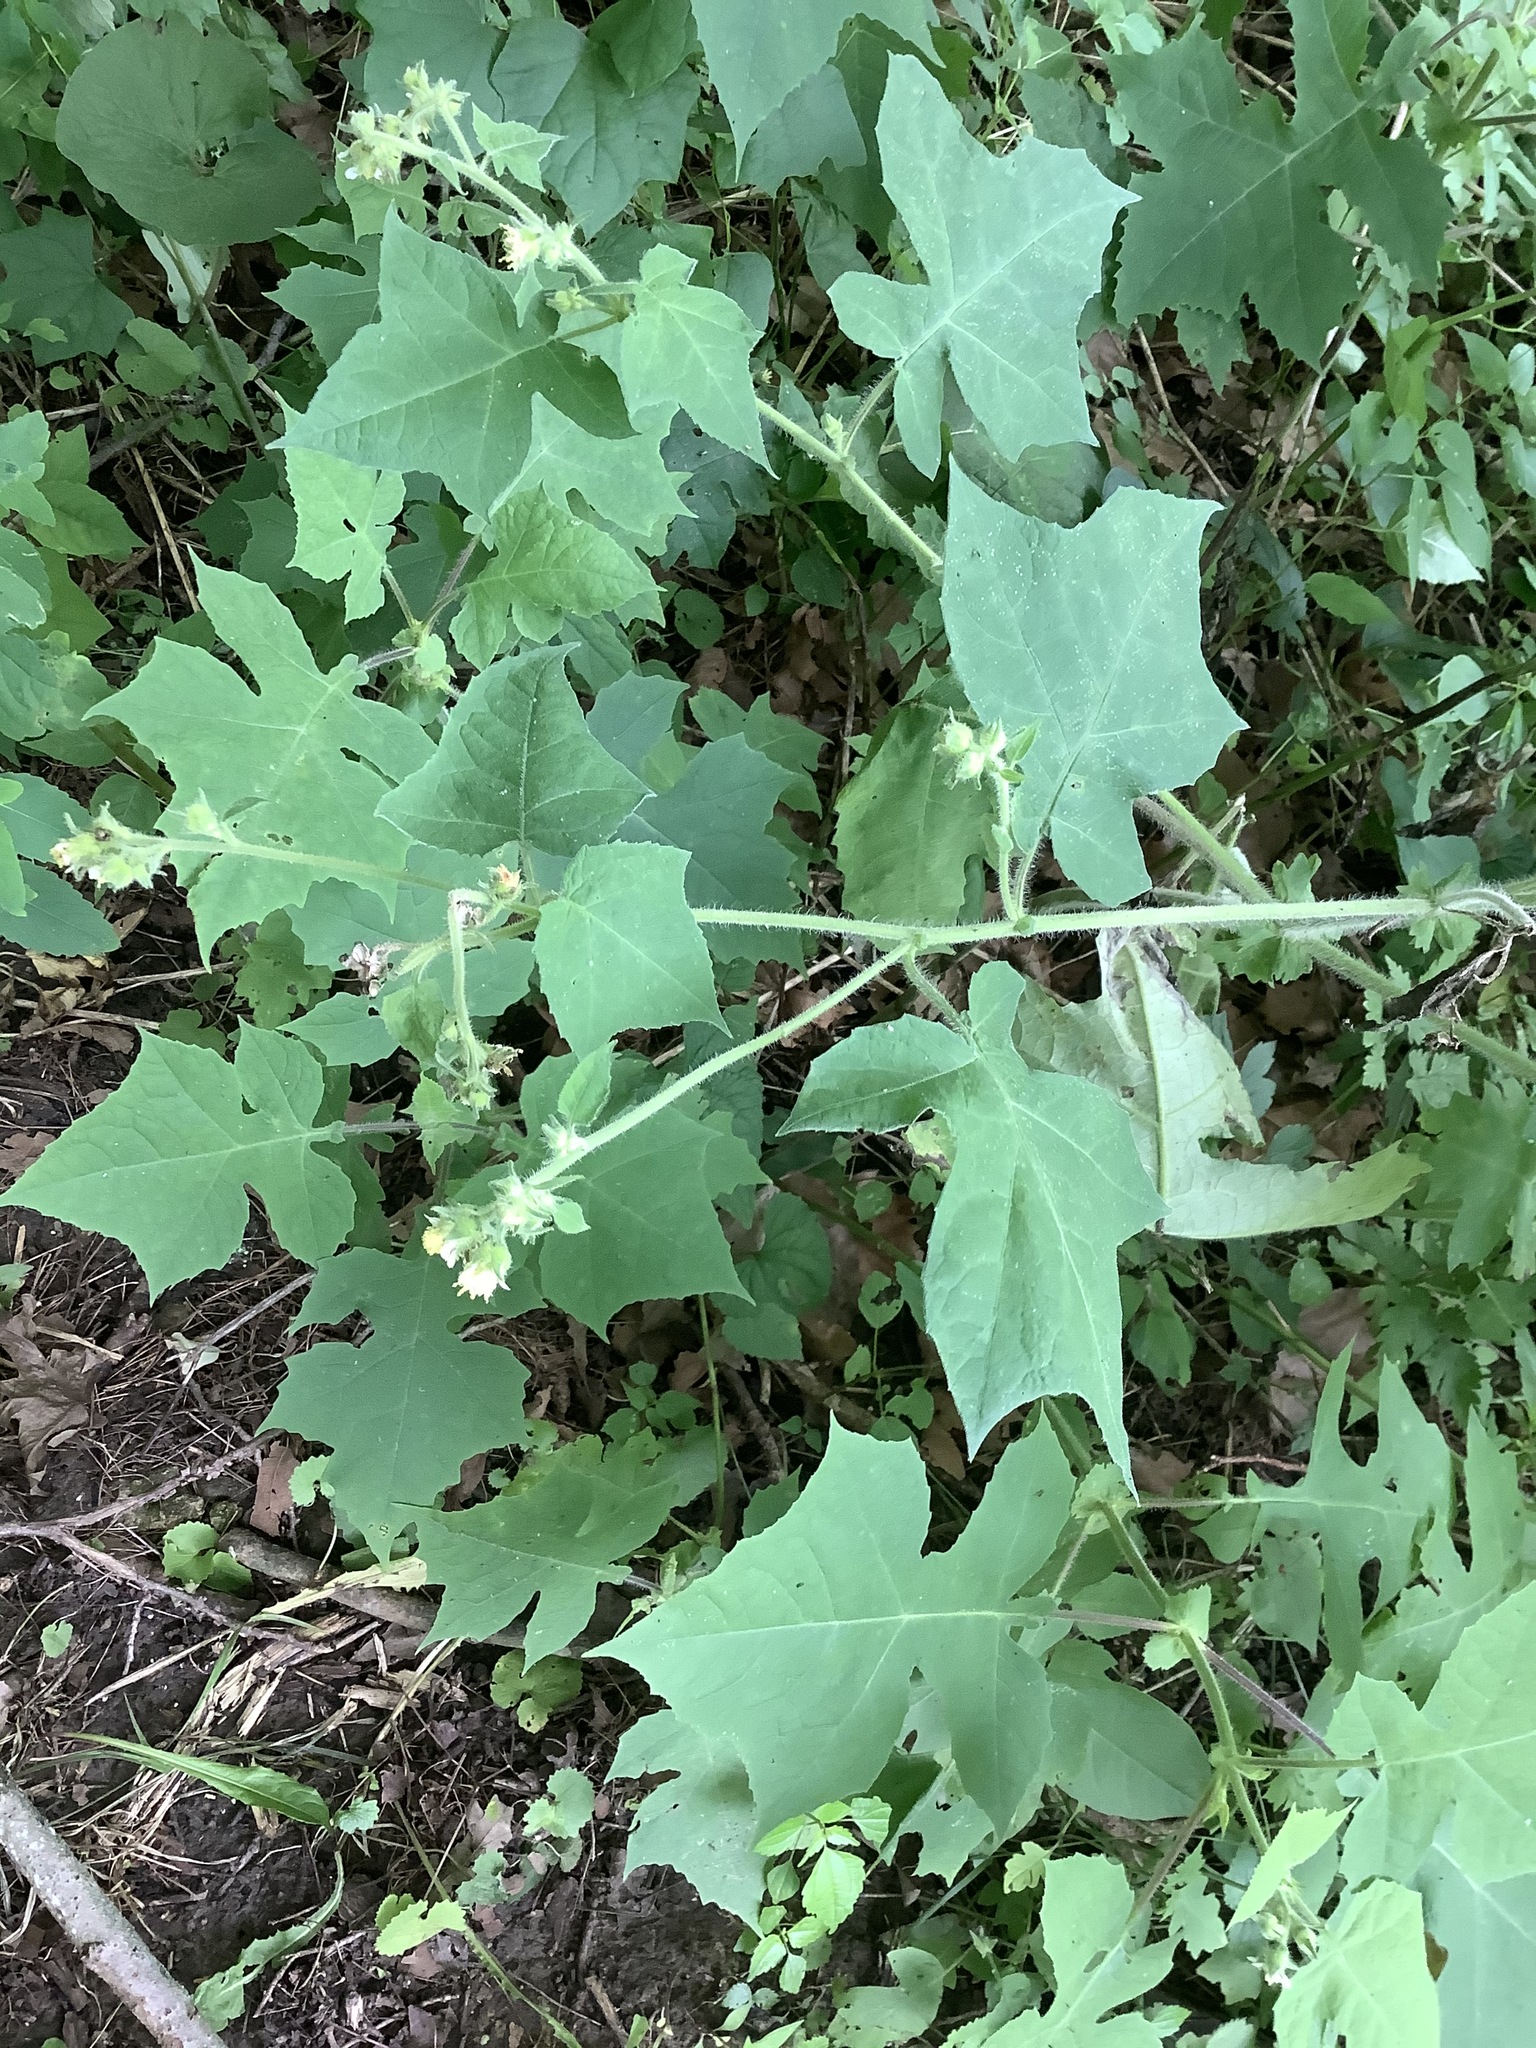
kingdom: Plantae
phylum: Tracheophyta
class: Magnoliopsida
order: Asterales
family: Asteraceae
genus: Polymnia
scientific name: Polymnia canadensis
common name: Pale-flowered leafcup
